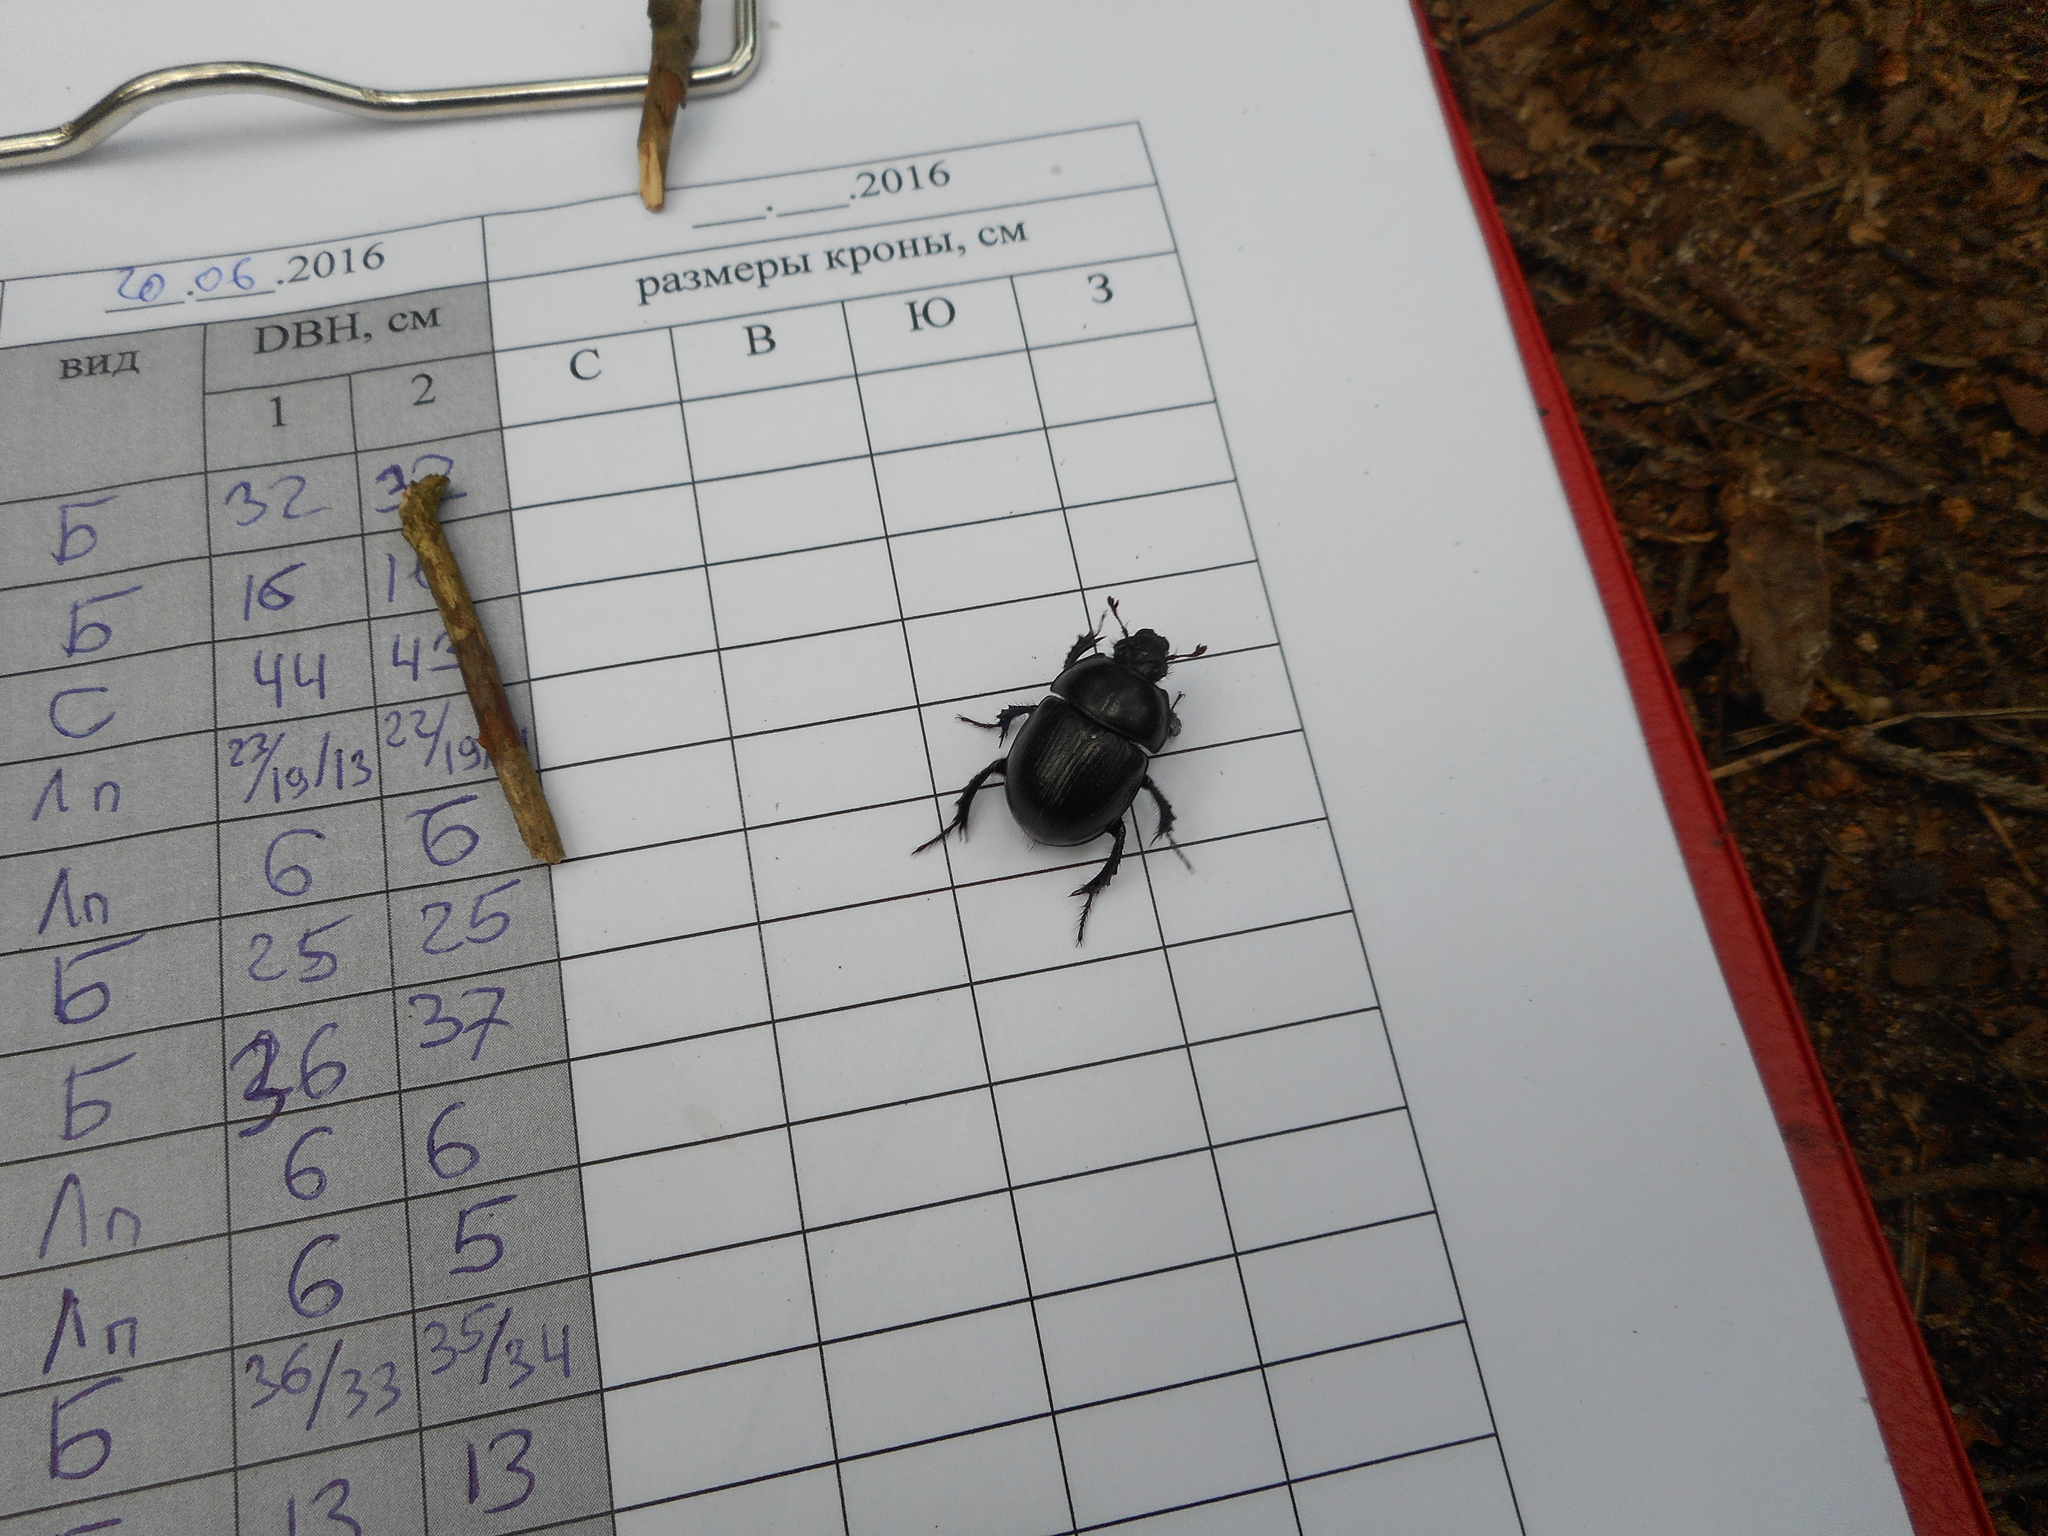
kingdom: Animalia
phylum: Arthropoda
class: Insecta
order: Coleoptera
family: Geotrupidae
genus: Anoplotrupes
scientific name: Anoplotrupes stercorosus
